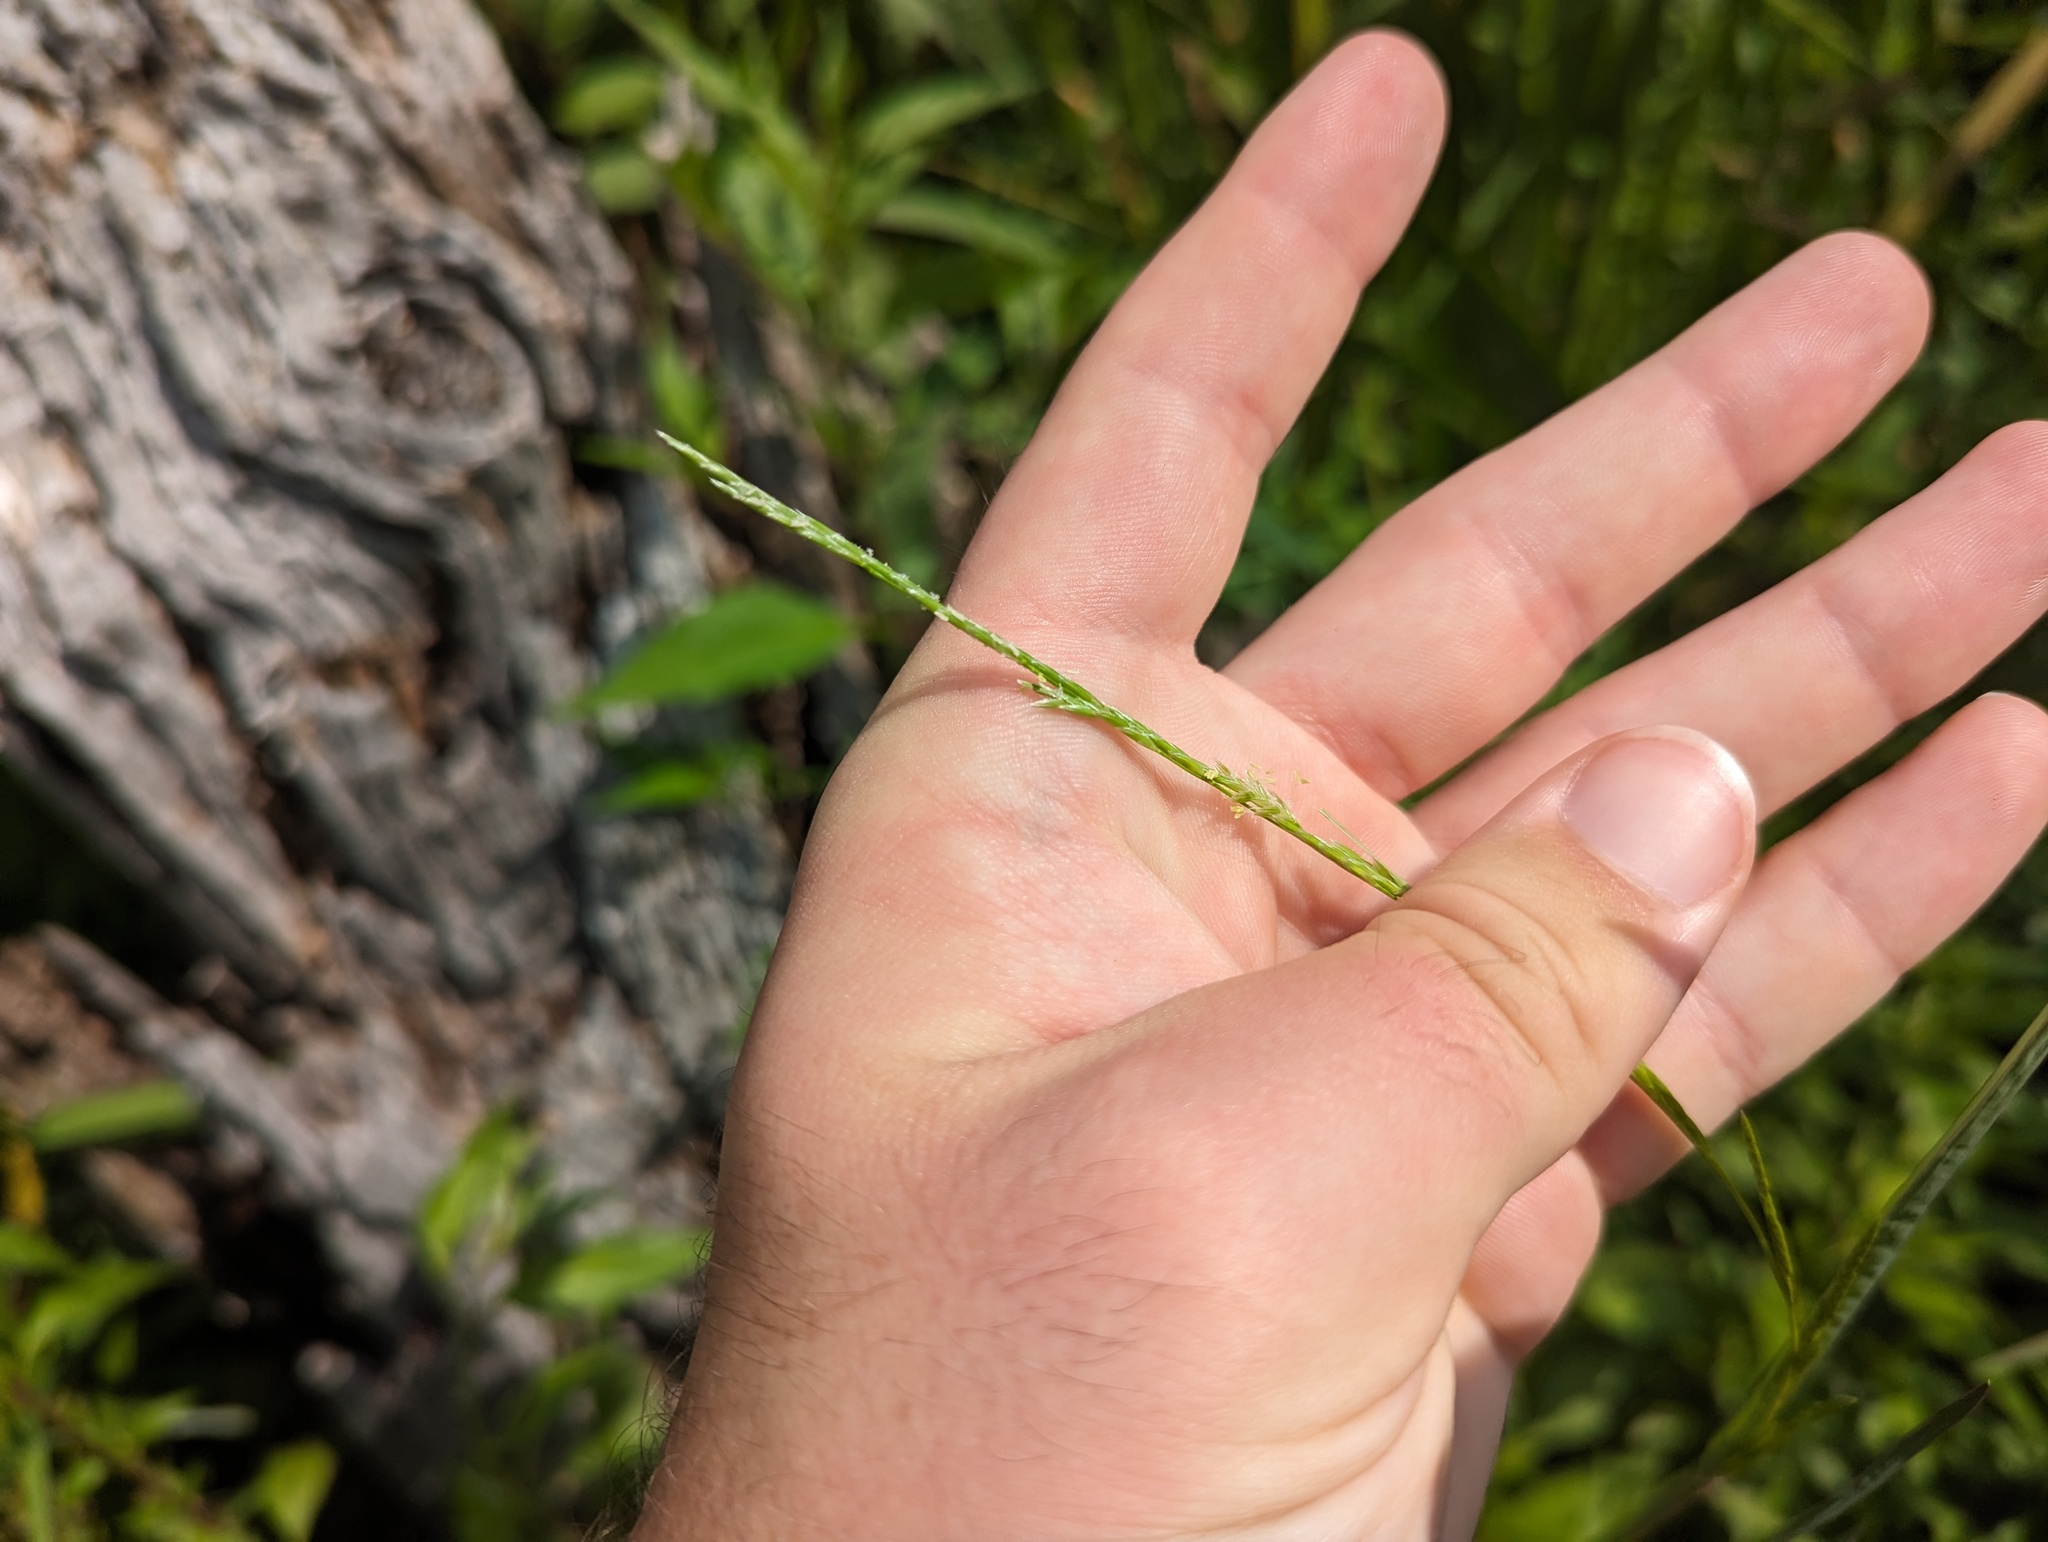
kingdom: Plantae
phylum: Tracheophyta
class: Liliopsida
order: Poales
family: Poaceae
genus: Glyceria
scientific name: Glyceria septentrionalis
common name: Eastern mannagrass
